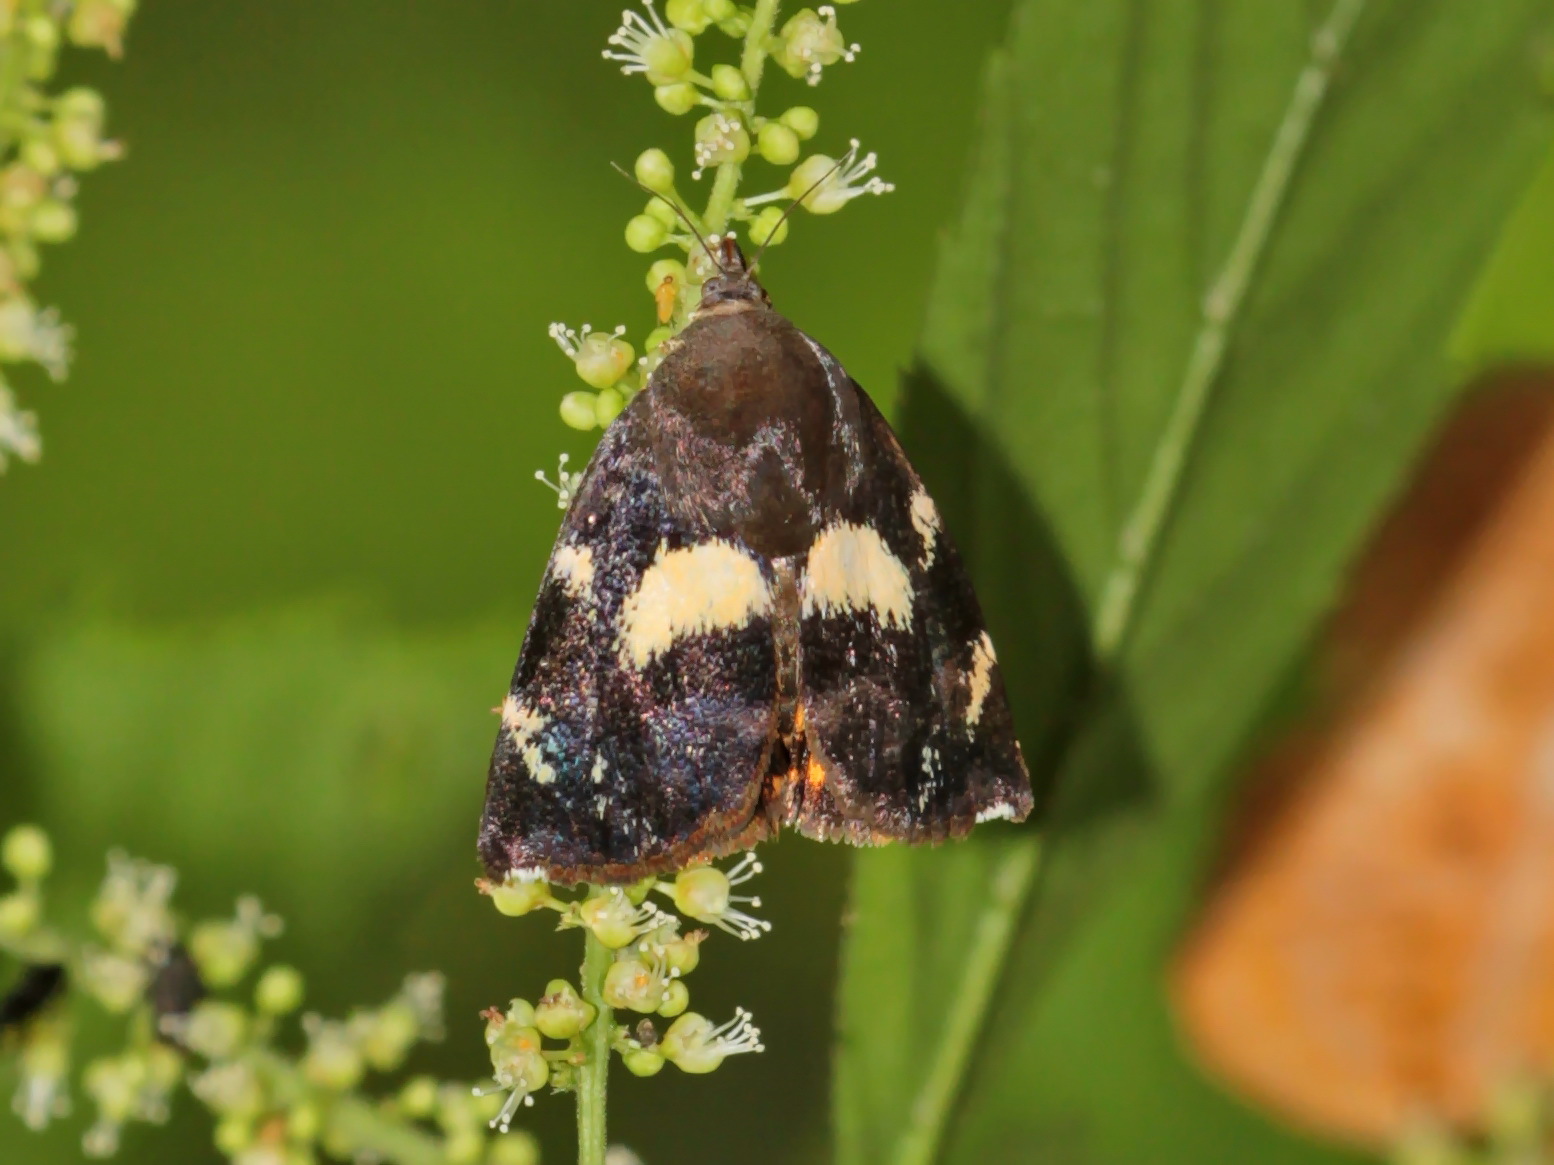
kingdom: Animalia
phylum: Arthropoda
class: Insecta
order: Lepidoptera
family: Hyblaeidae
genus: Hyblaea
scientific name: Hyblaea constellata
